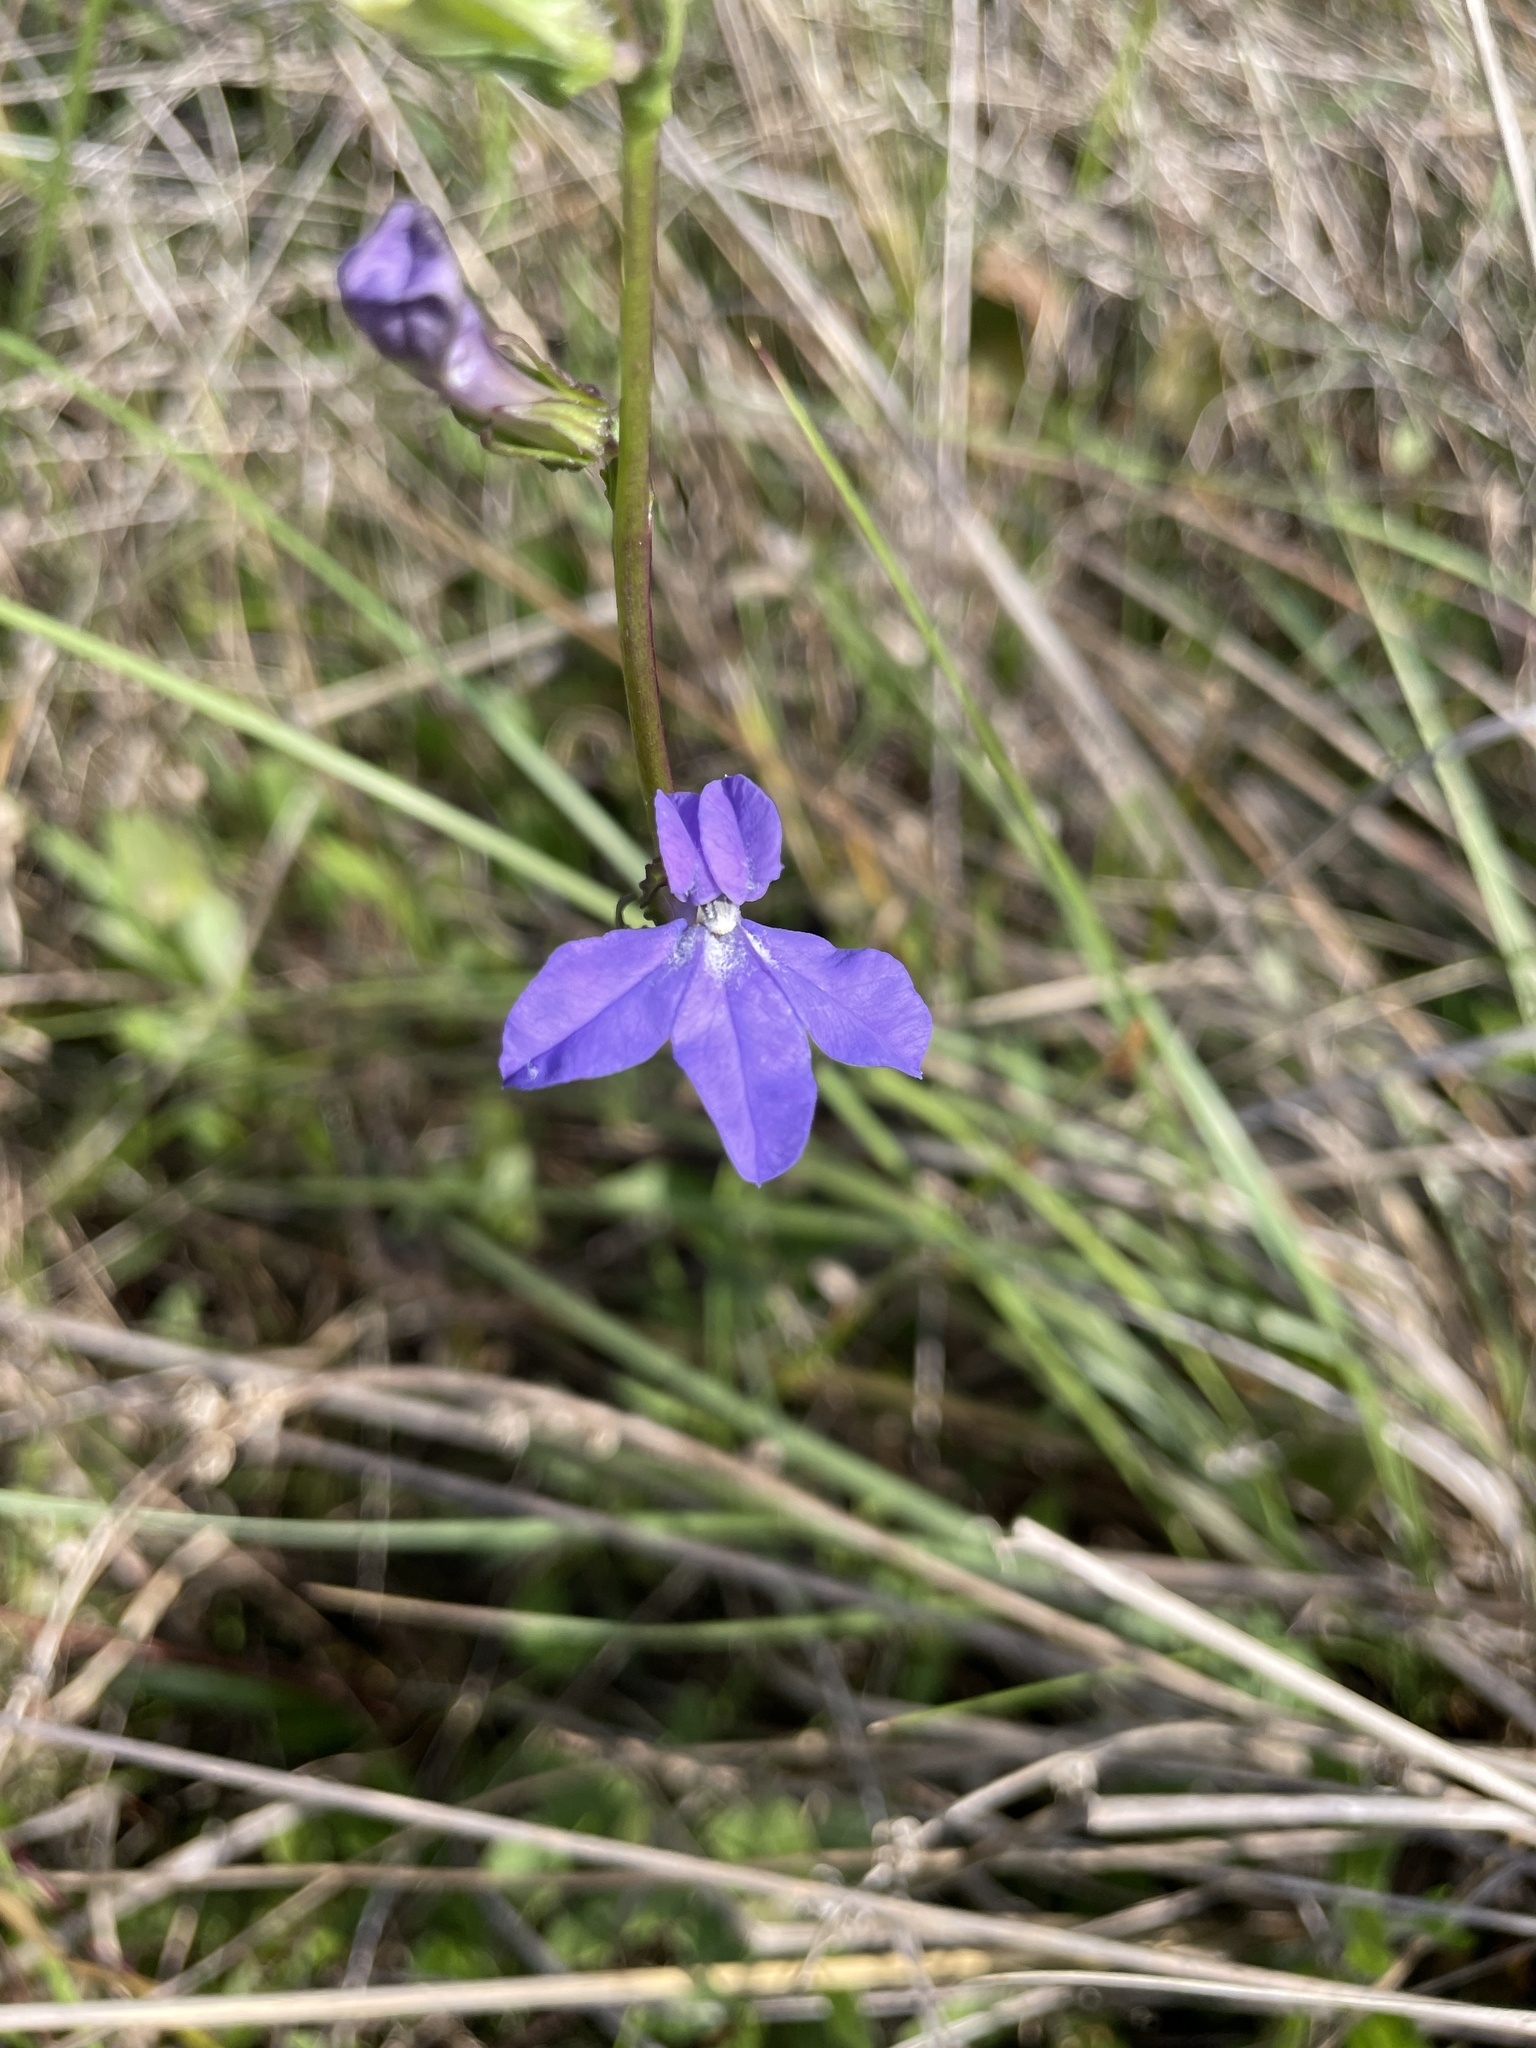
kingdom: Plantae
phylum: Tracheophyta
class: Magnoliopsida
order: Asterales
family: Campanulaceae
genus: Lobelia
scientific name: Lobelia glandulosa
